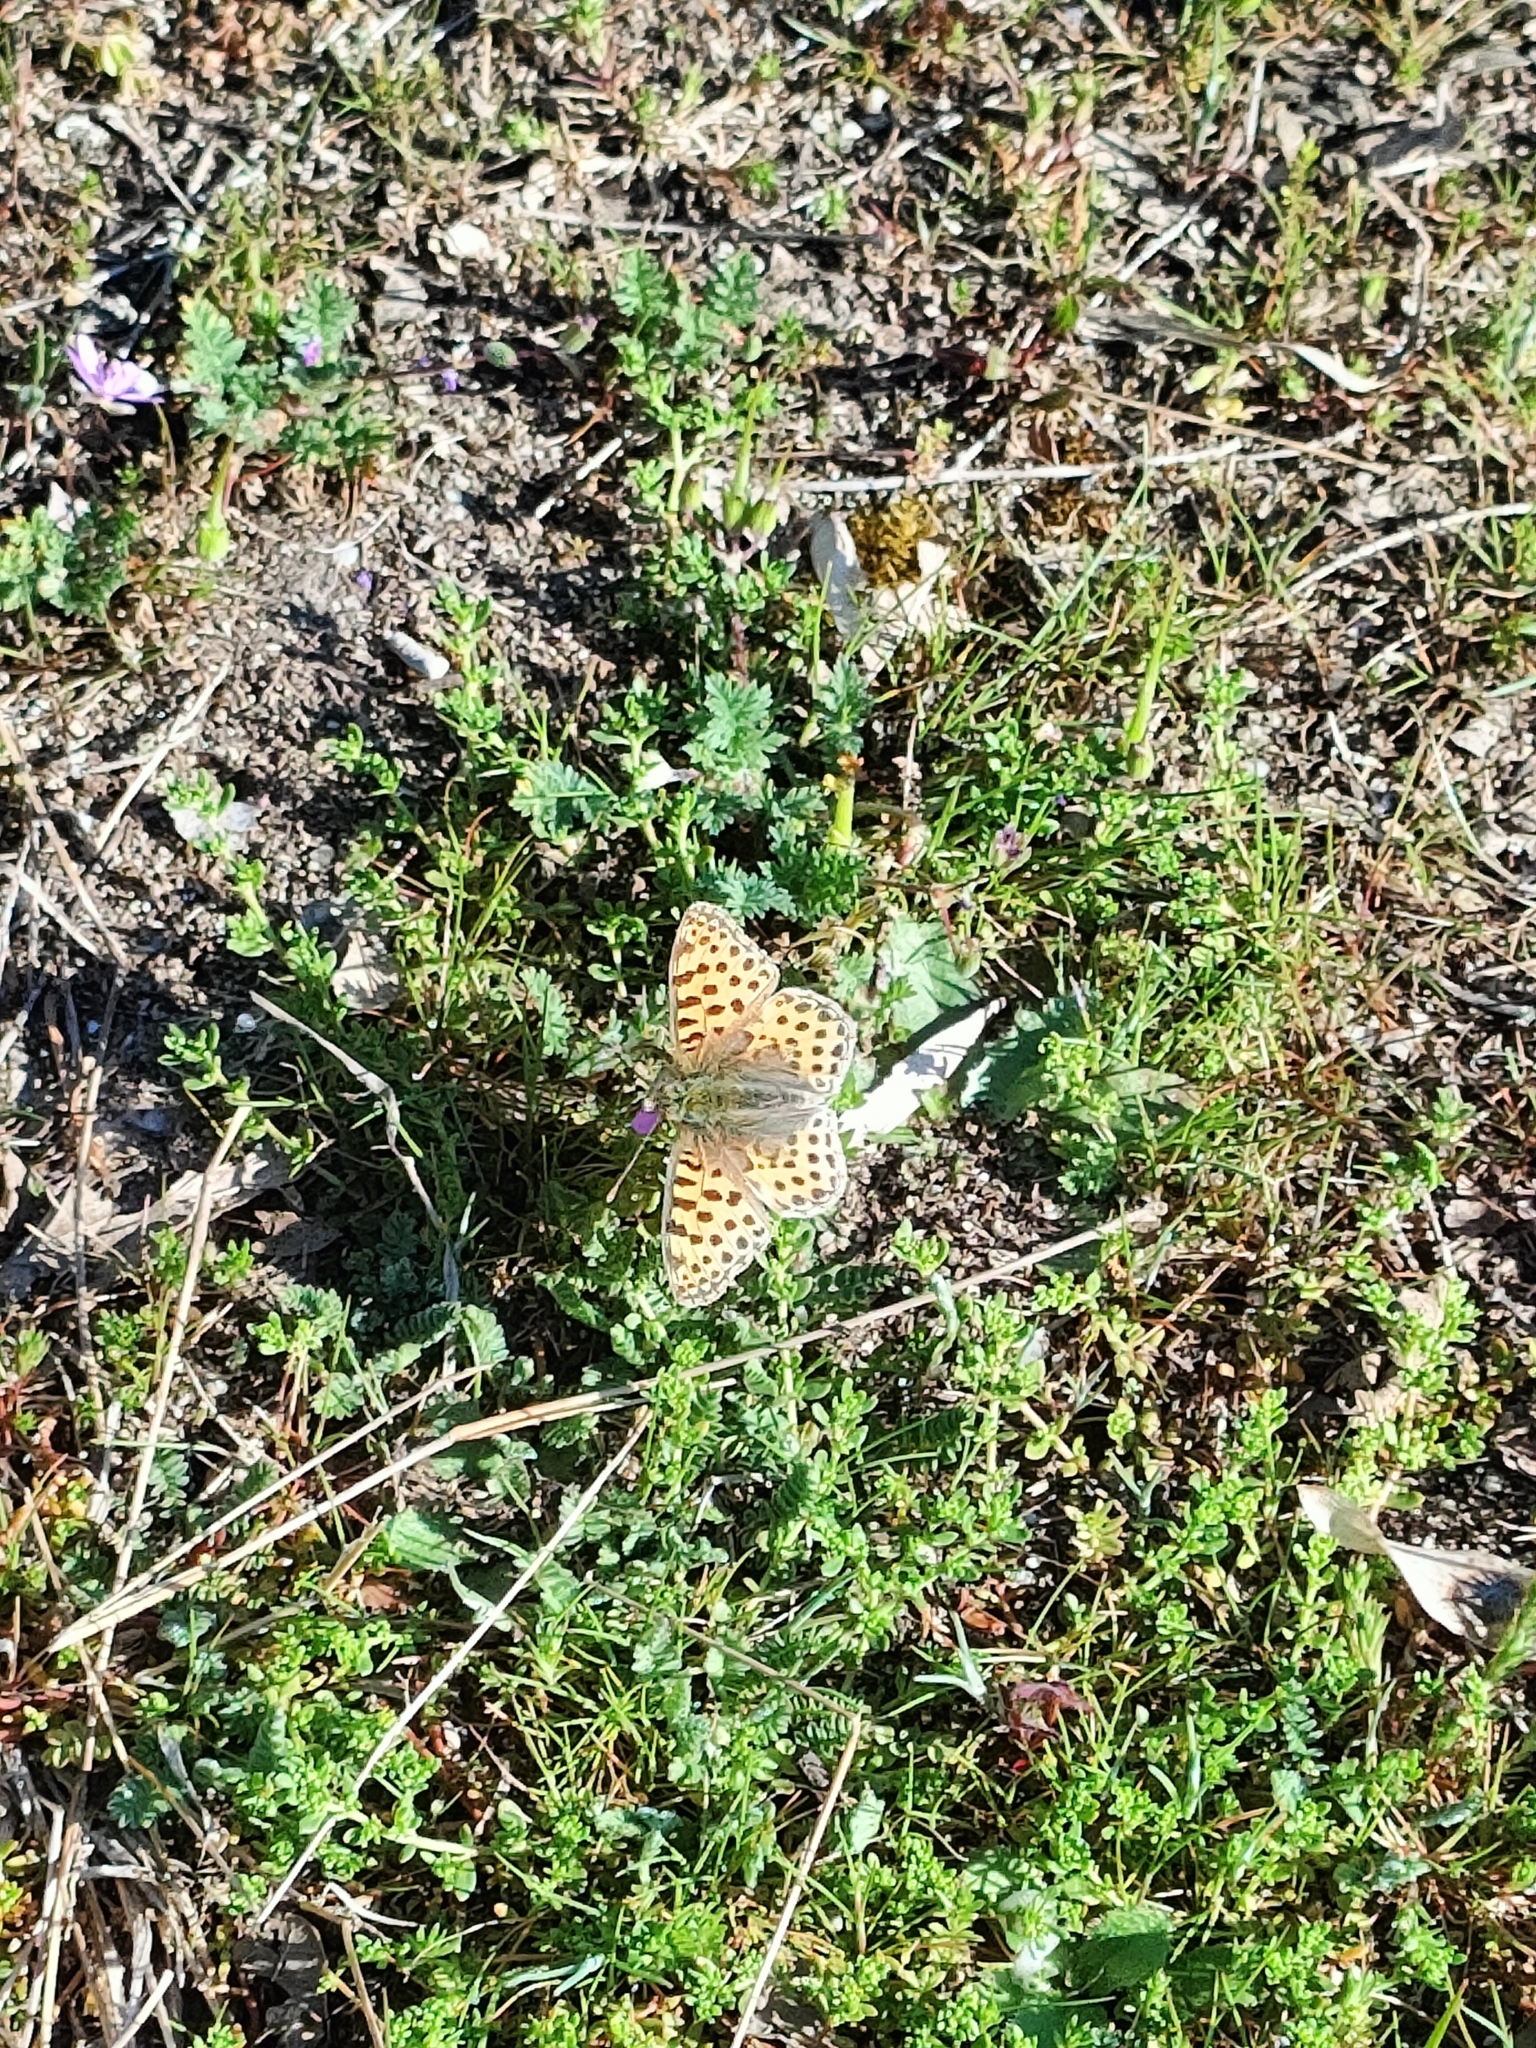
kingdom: Animalia
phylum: Arthropoda
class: Insecta
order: Lepidoptera
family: Nymphalidae
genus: Issoria
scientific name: Issoria lathonia
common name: Queen of spain fritillary
